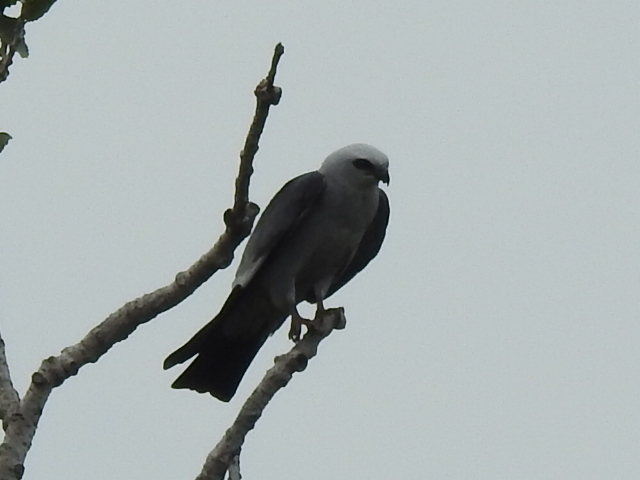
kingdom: Animalia
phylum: Chordata
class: Aves
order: Accipitriformes
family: Accipitridae
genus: Ictinia
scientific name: Ictinia mississippiensis
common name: Mississippi kite
